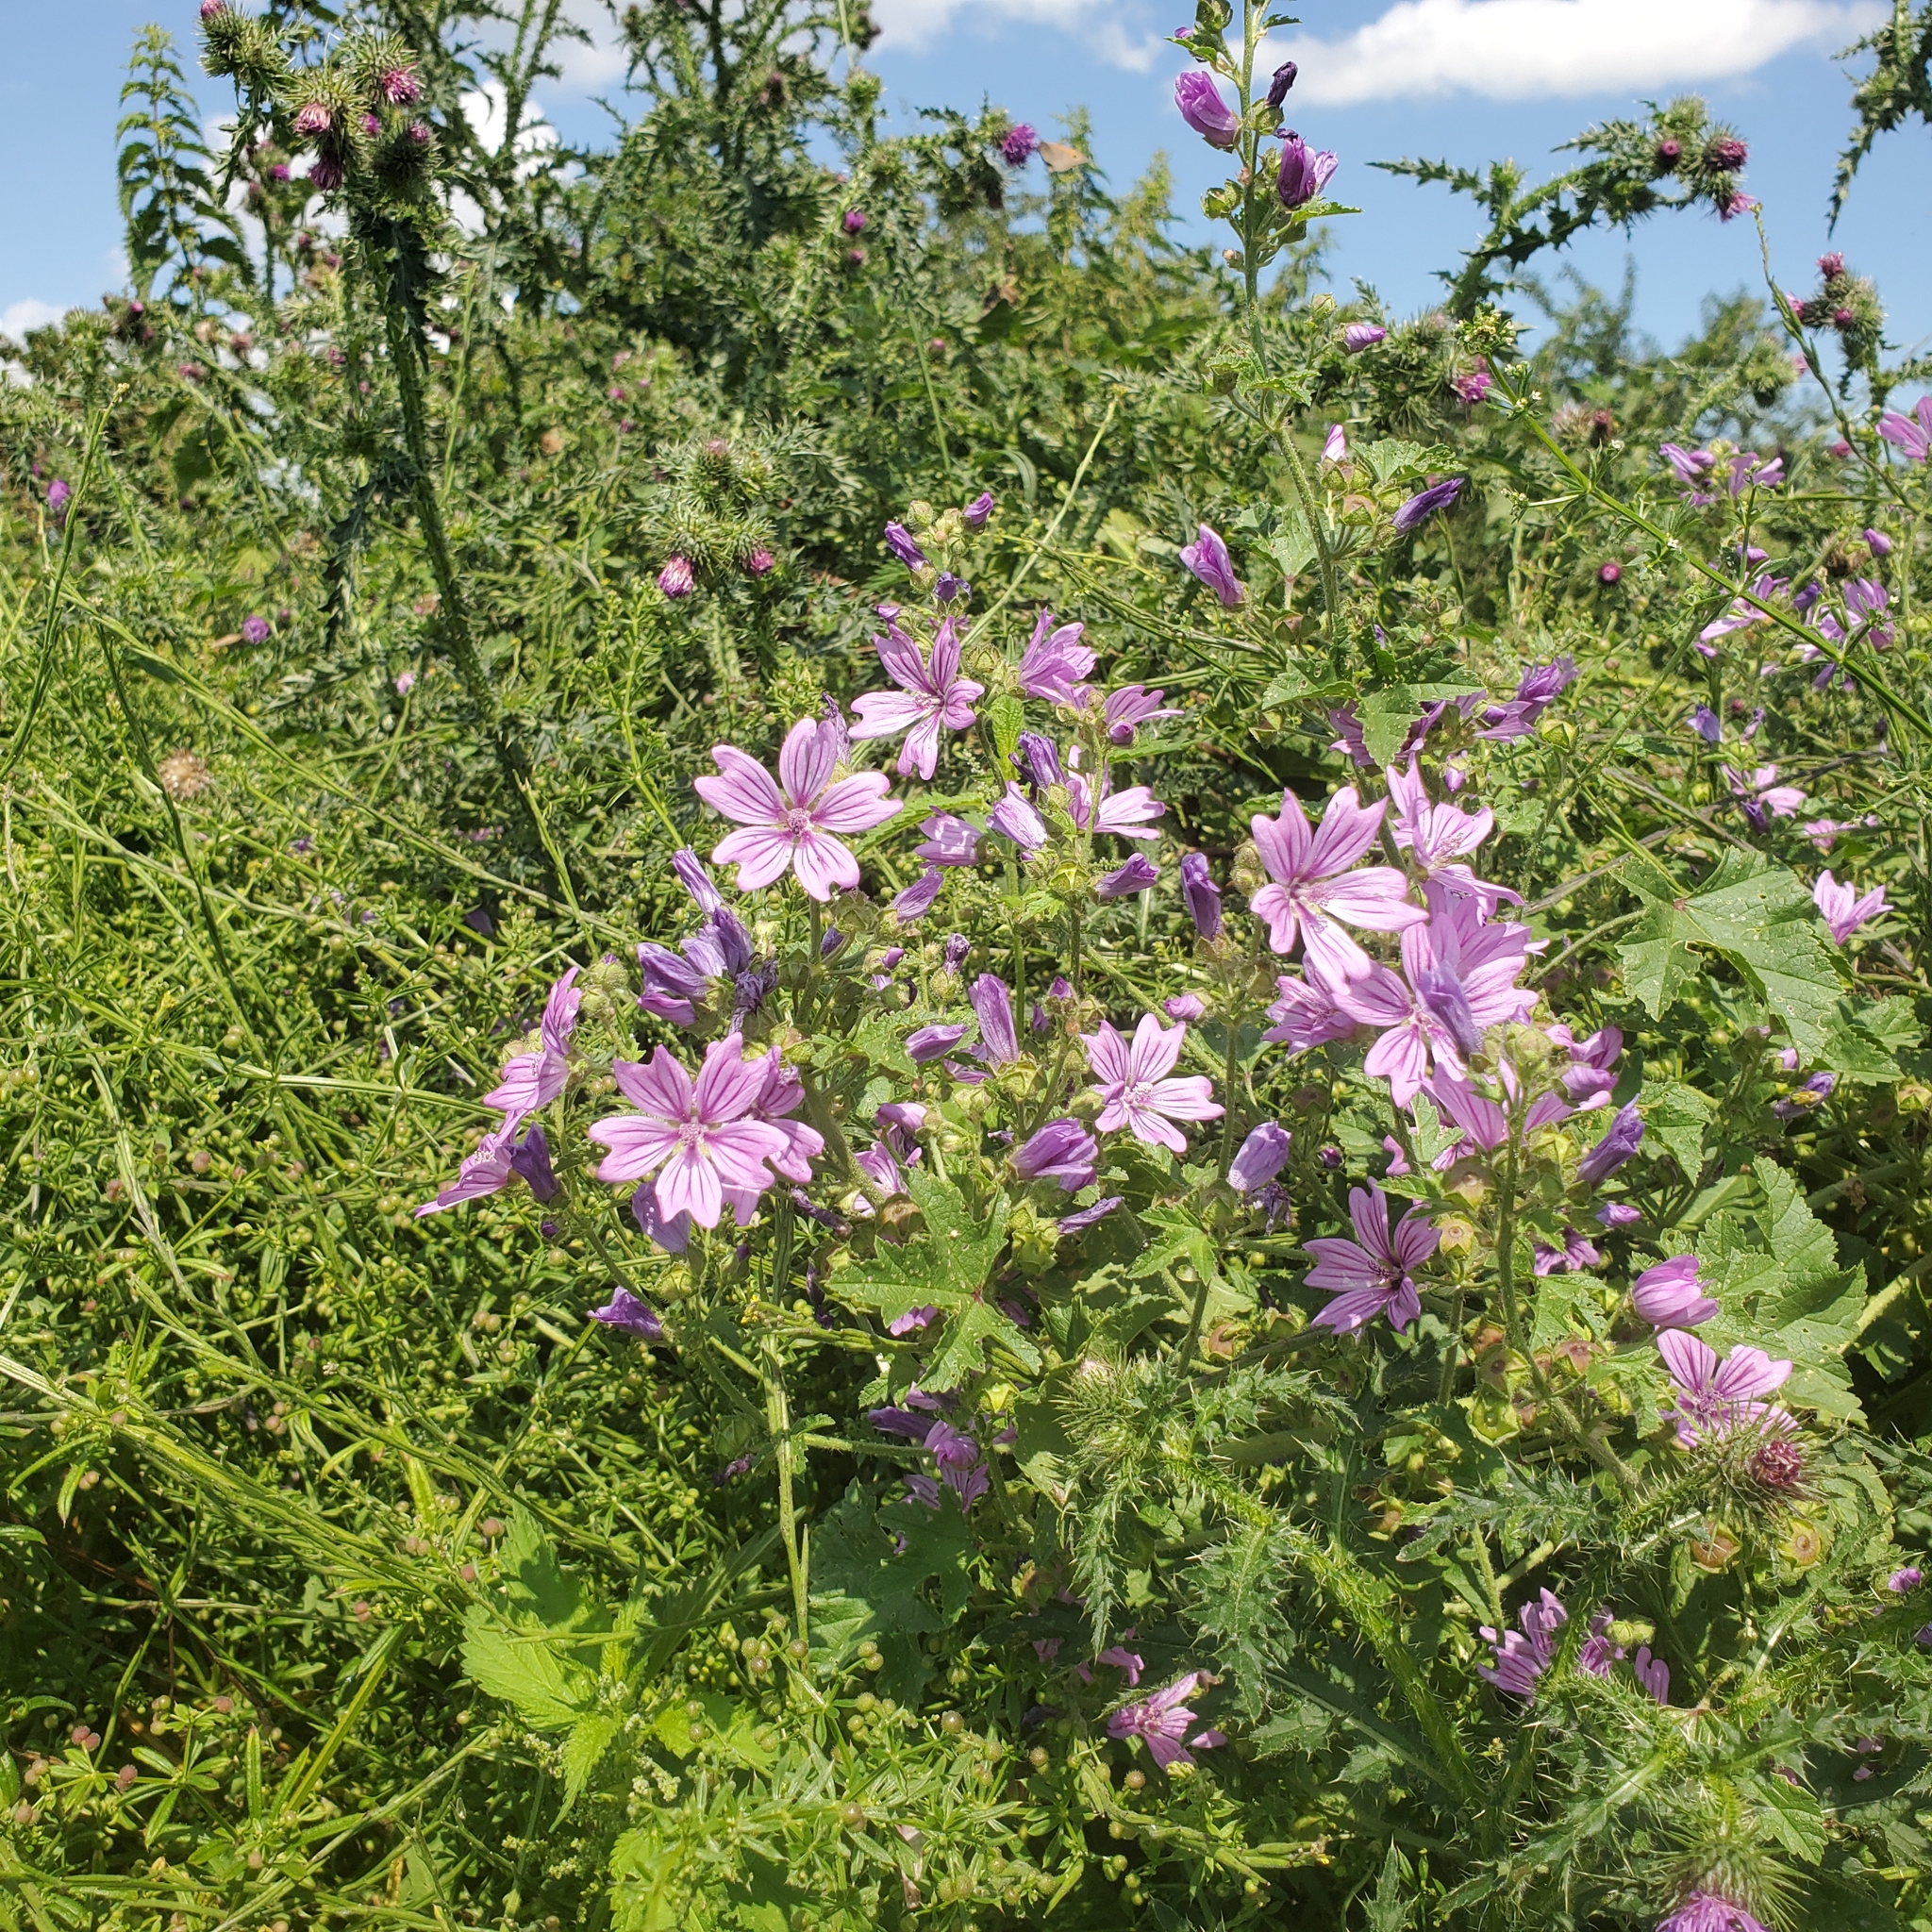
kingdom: Plantae
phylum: Tracheophyta
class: Magnoliopsida
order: Malvales
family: Malvaceae
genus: Malva
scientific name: Malva sylvestris
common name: Common mallow
